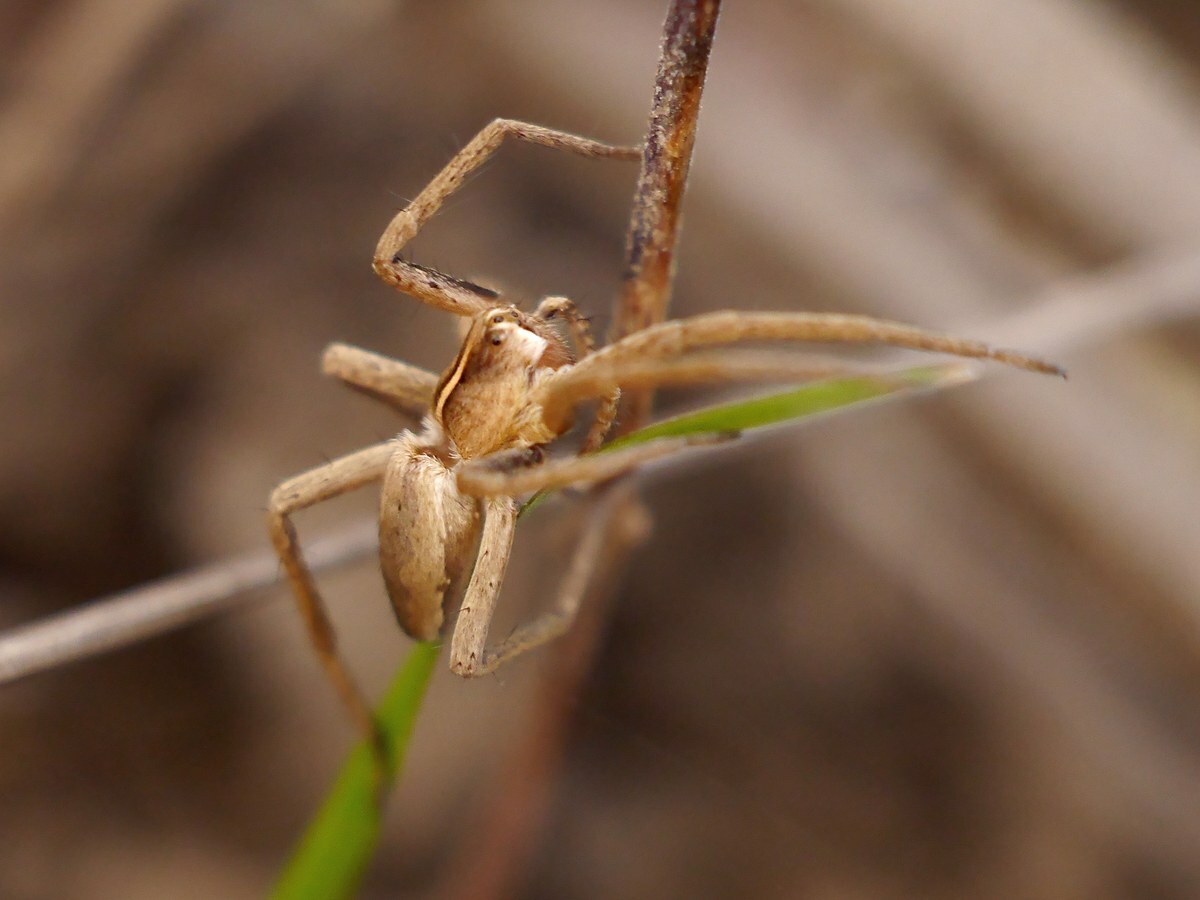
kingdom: Animalia
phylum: Arthropoda
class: Arachnida
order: Araneae
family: Pisauridae
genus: Pisaura
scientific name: Pisaura
